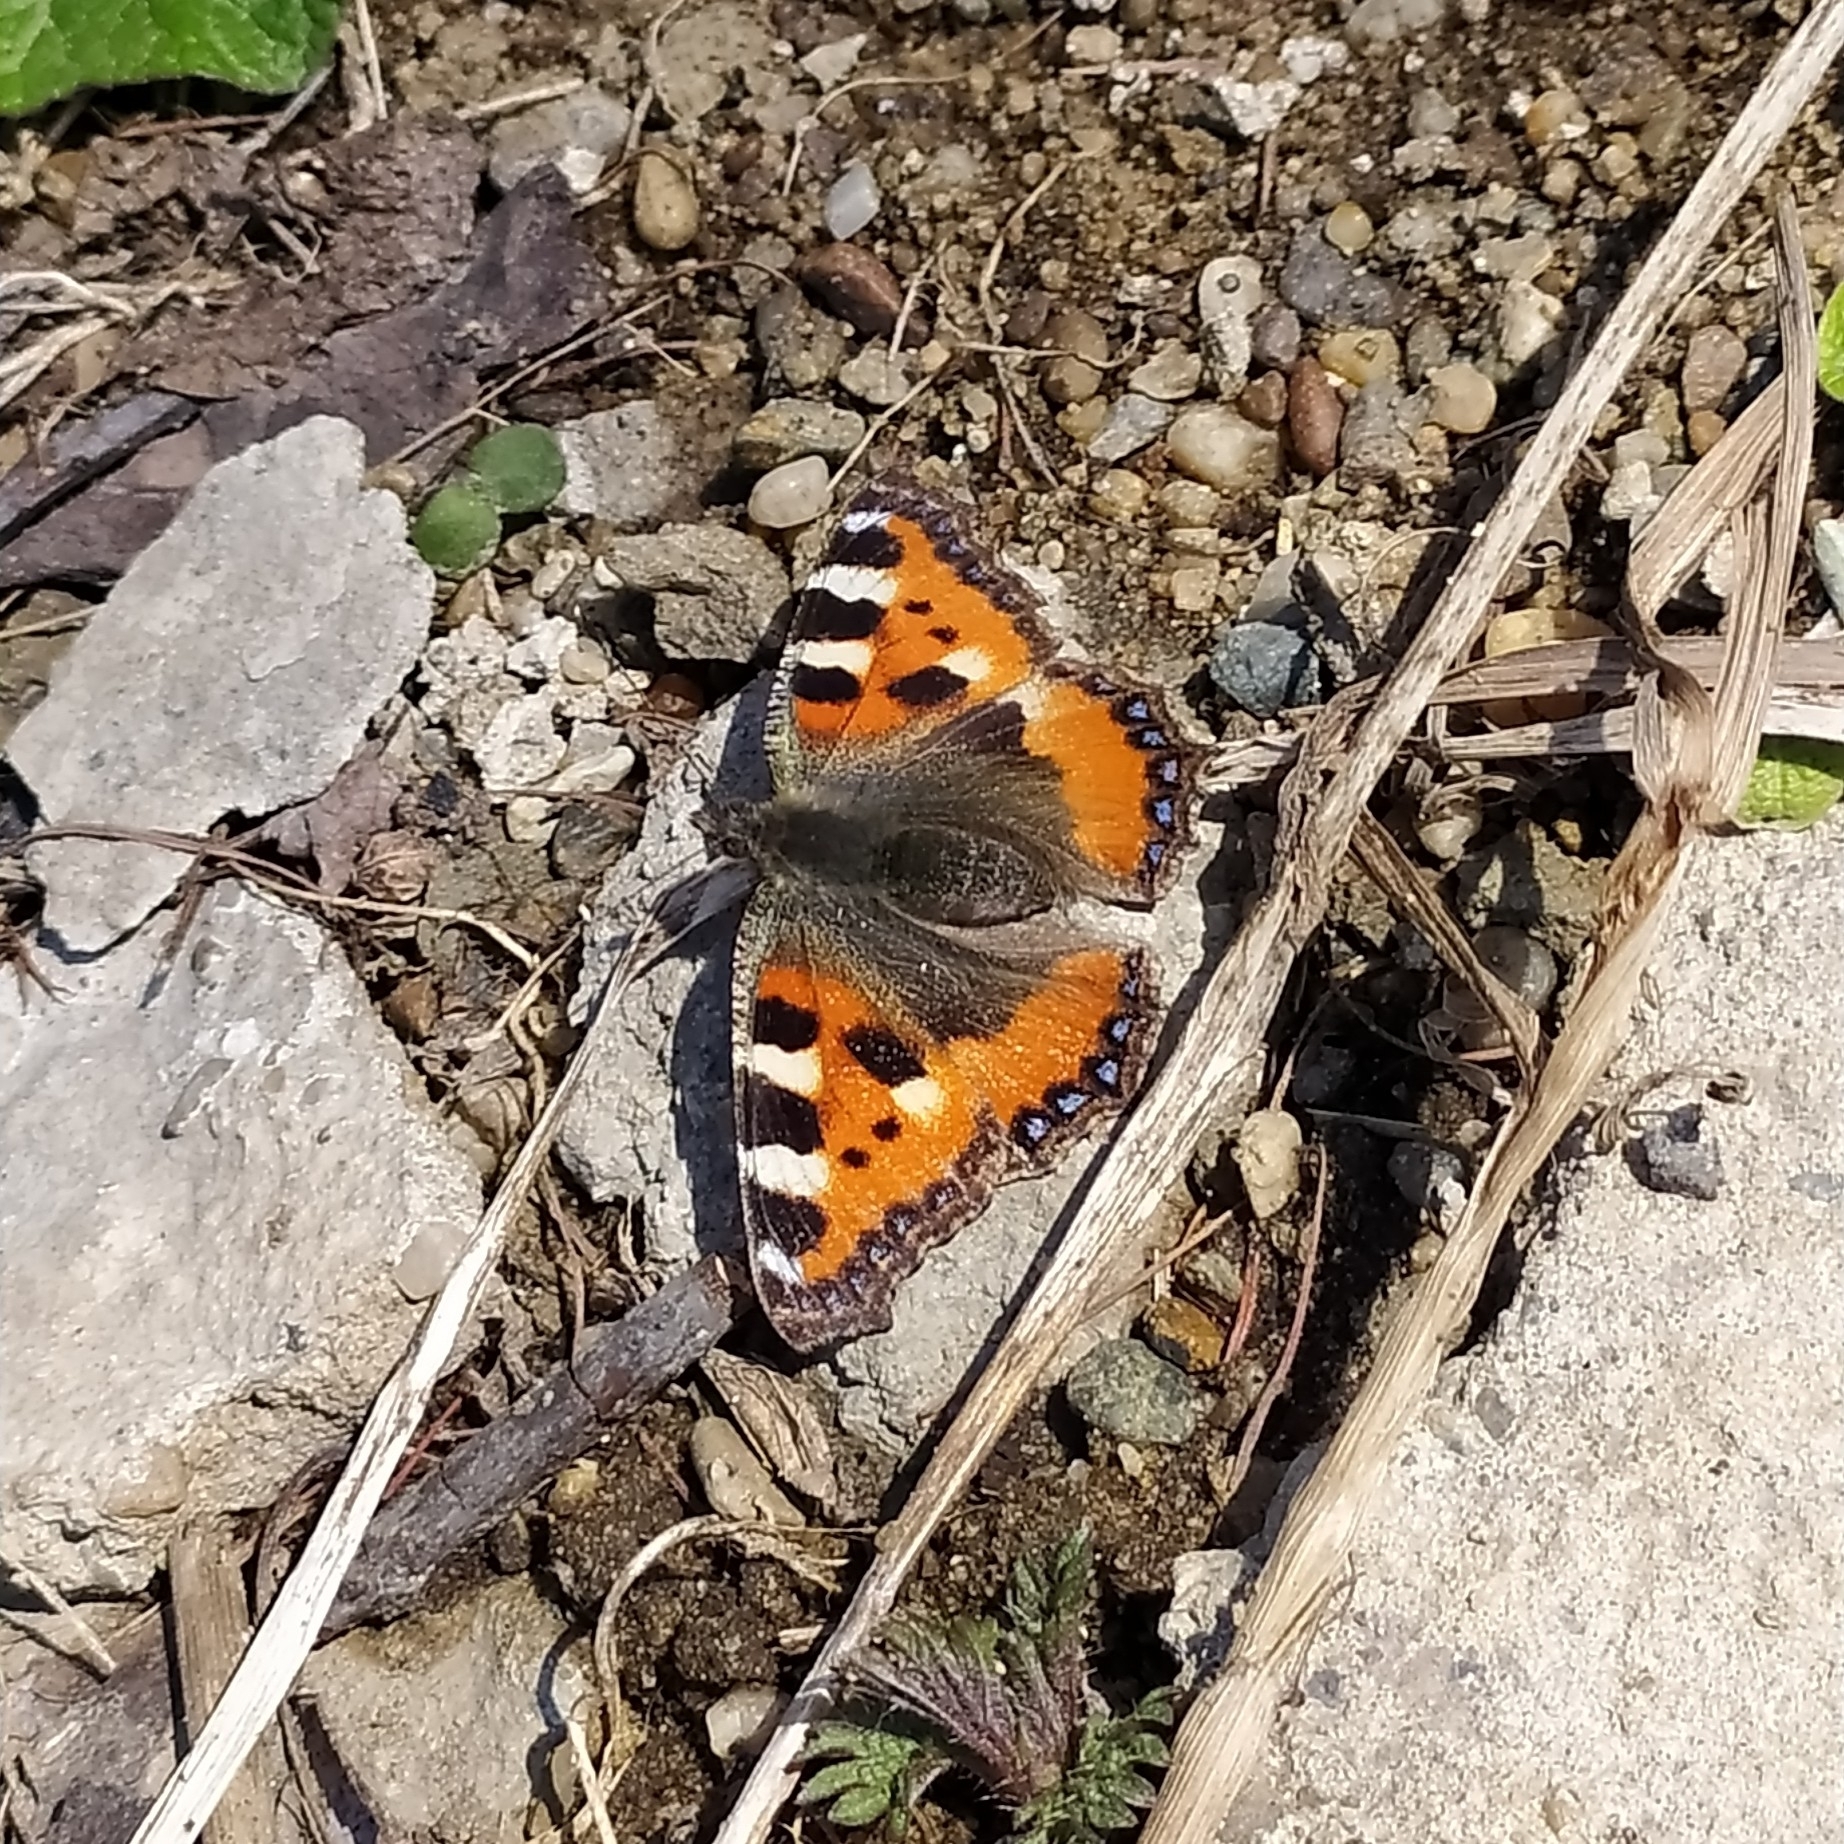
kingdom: Animalia
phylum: Arthropoda
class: Insecta
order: Lepidoptera
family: Nymphalidae
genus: Aglais
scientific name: Aglais urticae
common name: Small tortoiseshell
